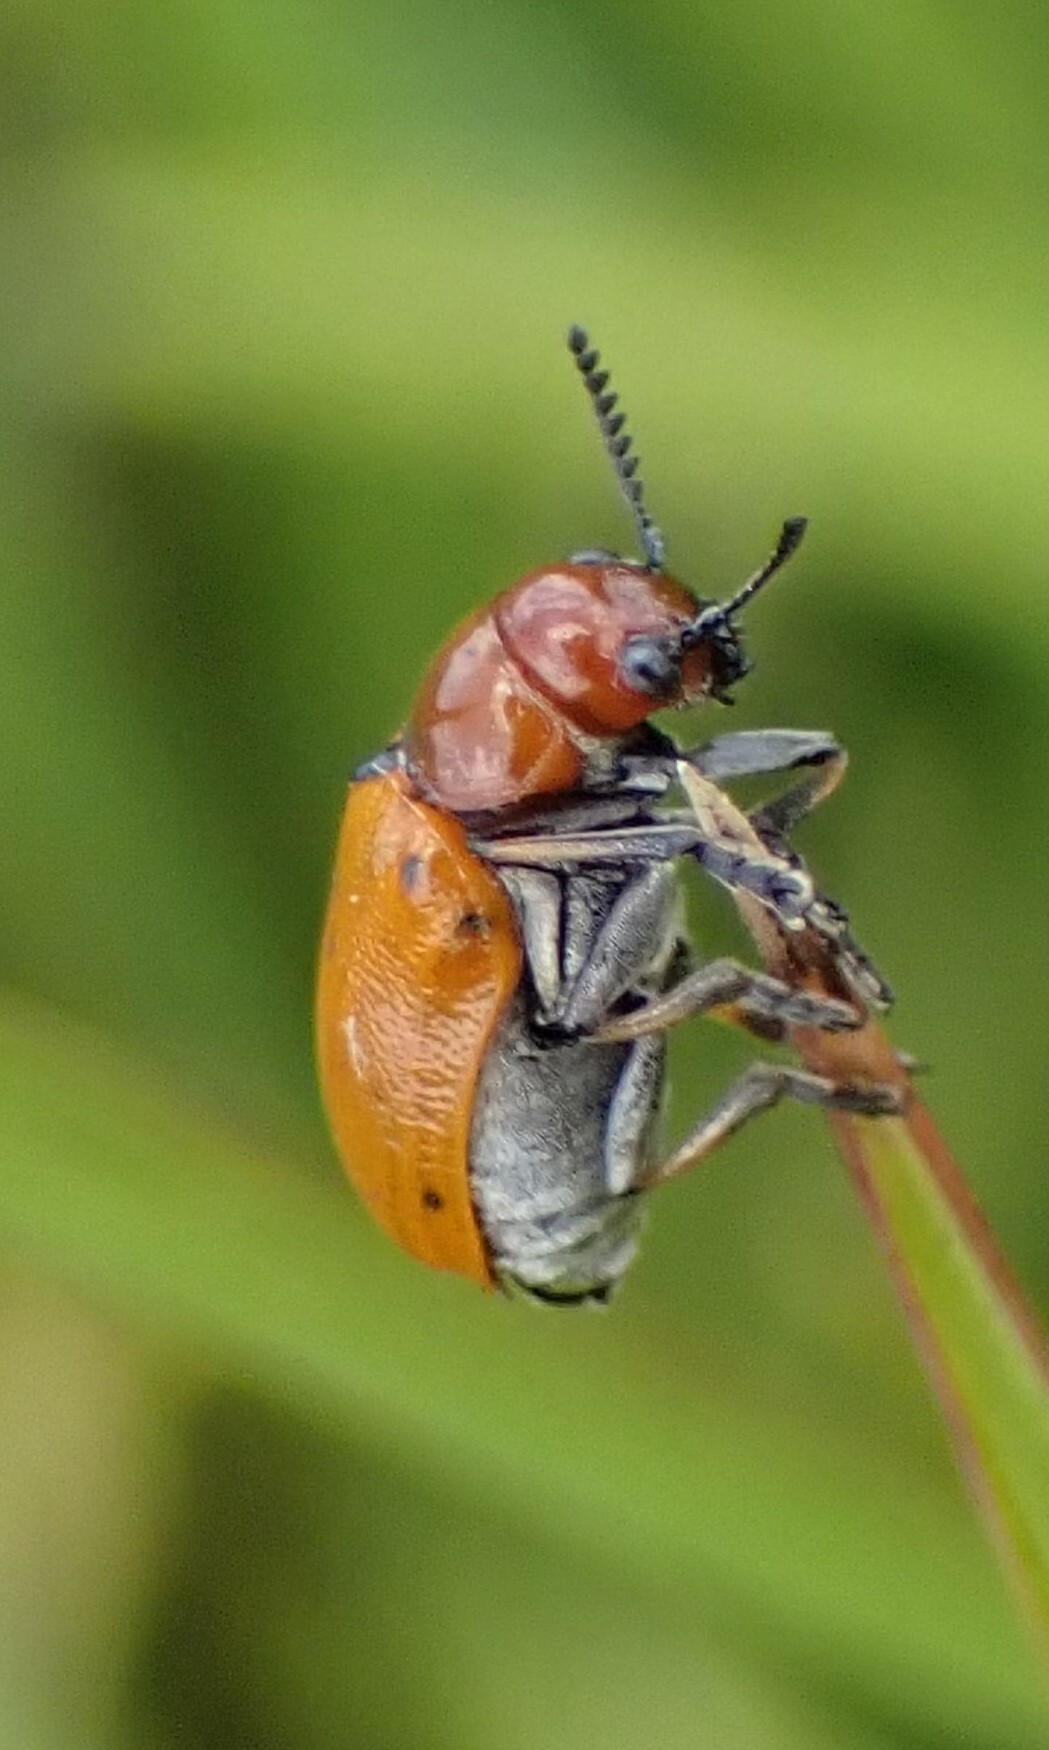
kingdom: Animalia
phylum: Arthropoda
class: Insecta
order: Coleoptera
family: Chrysomelidae
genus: Antipus
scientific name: Antipus rufus
